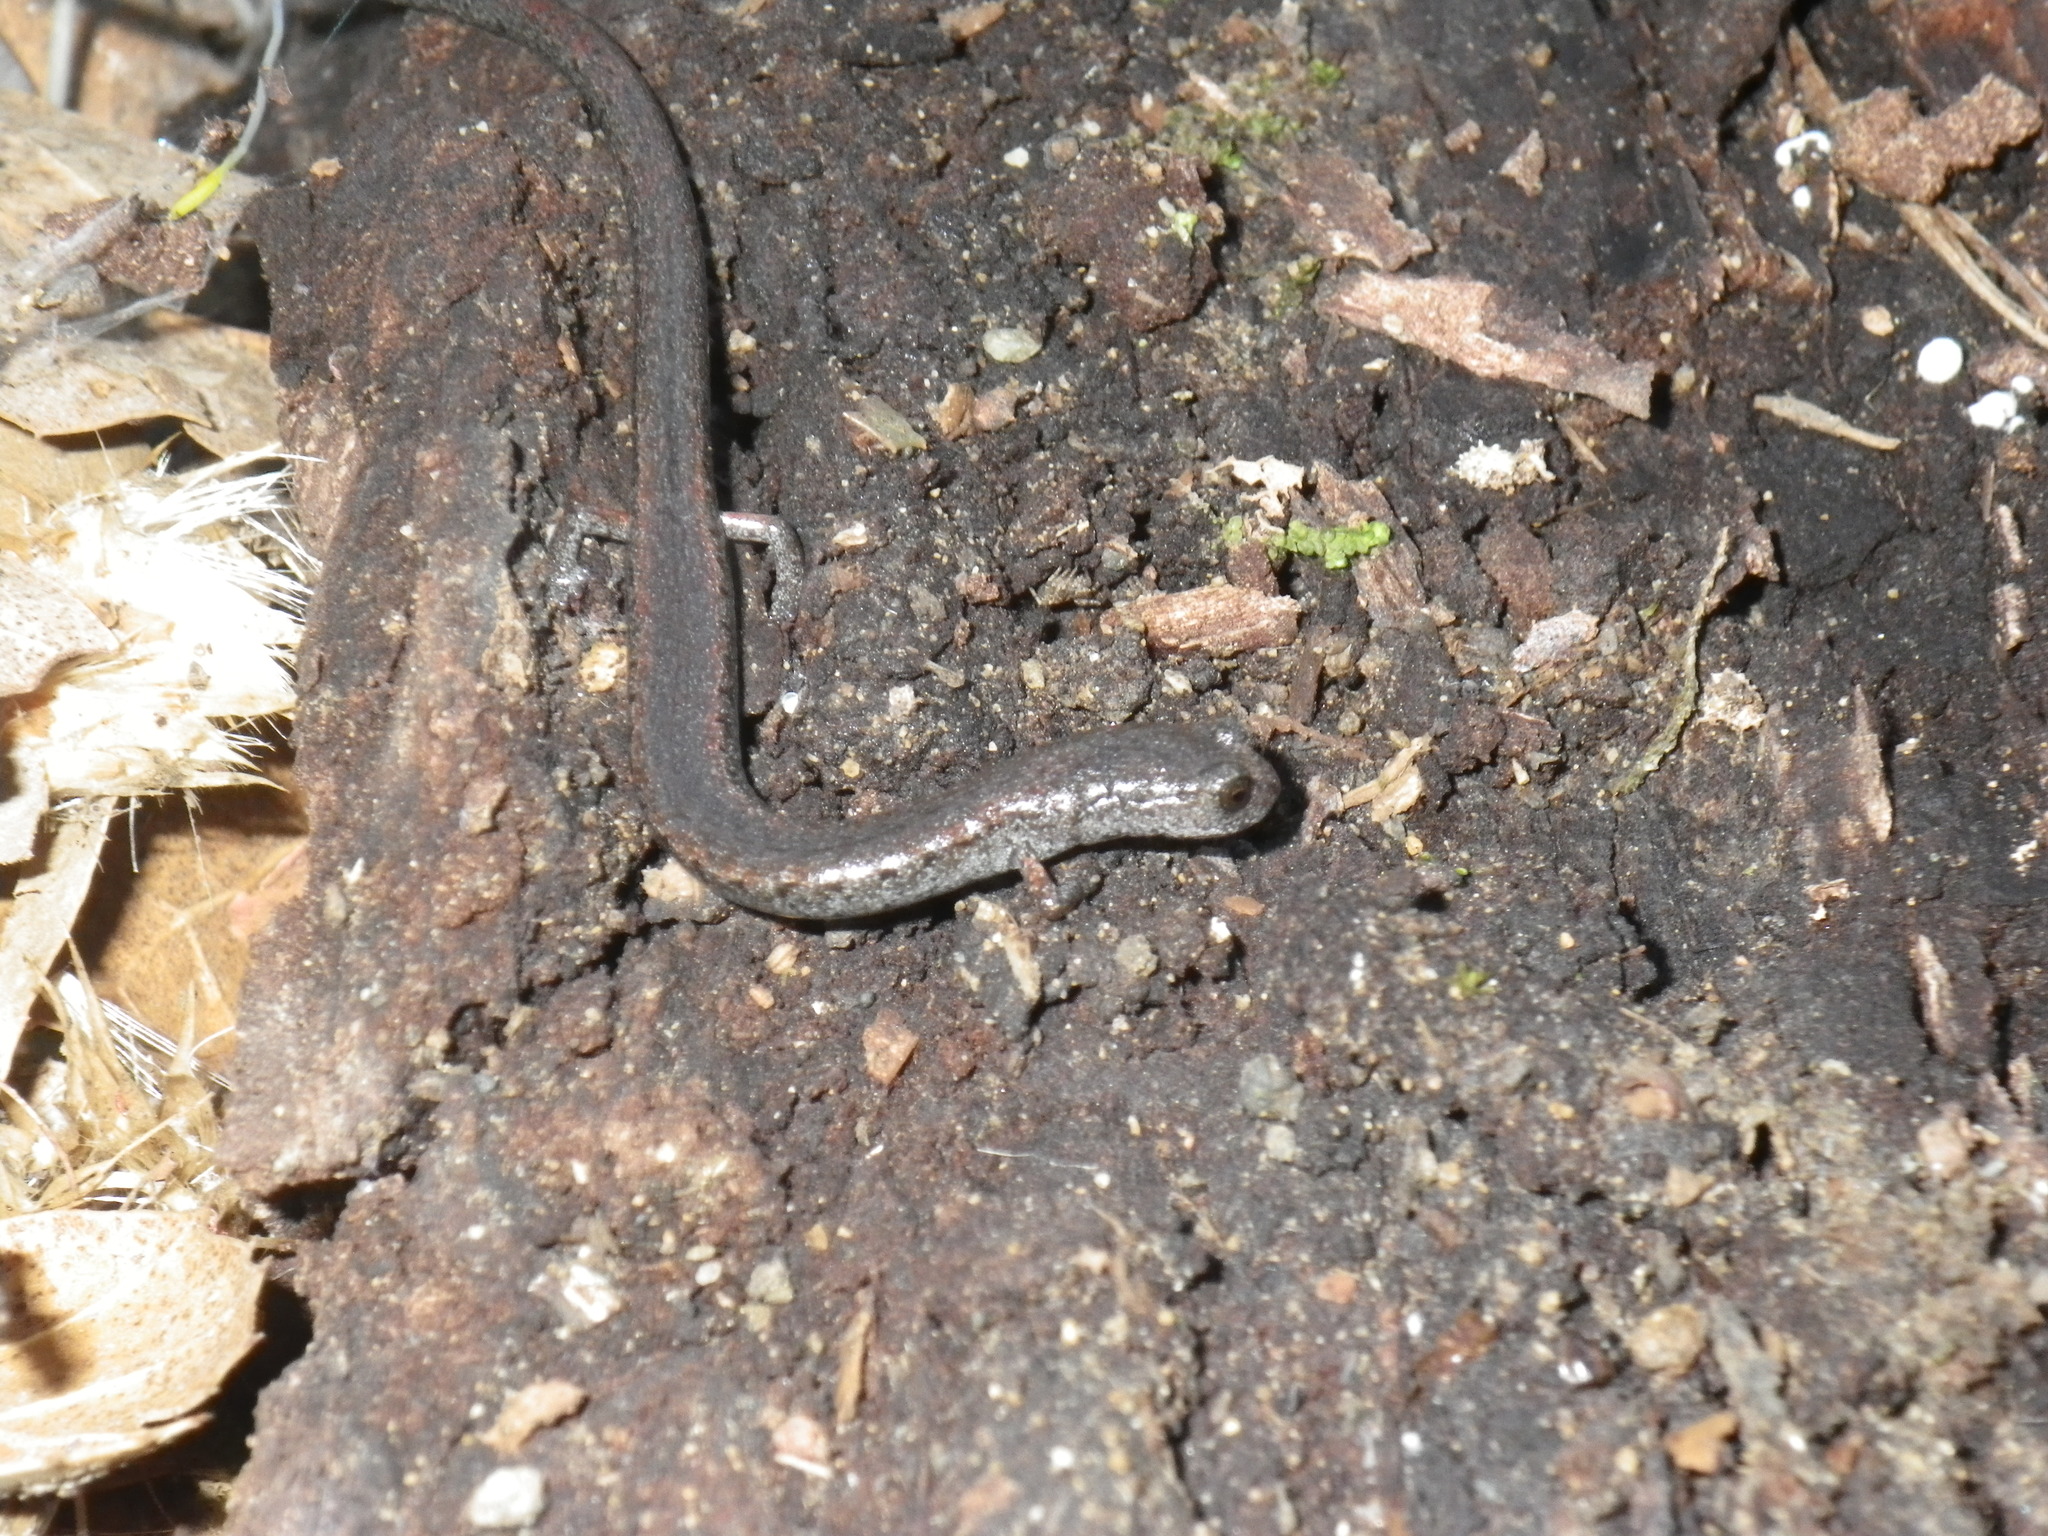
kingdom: Animalia
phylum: Chordata
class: Amphibia
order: Caudata
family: Plethodontidae
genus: Batrachoseps
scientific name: Batrachoseps attenuatus
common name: California slender salamander
